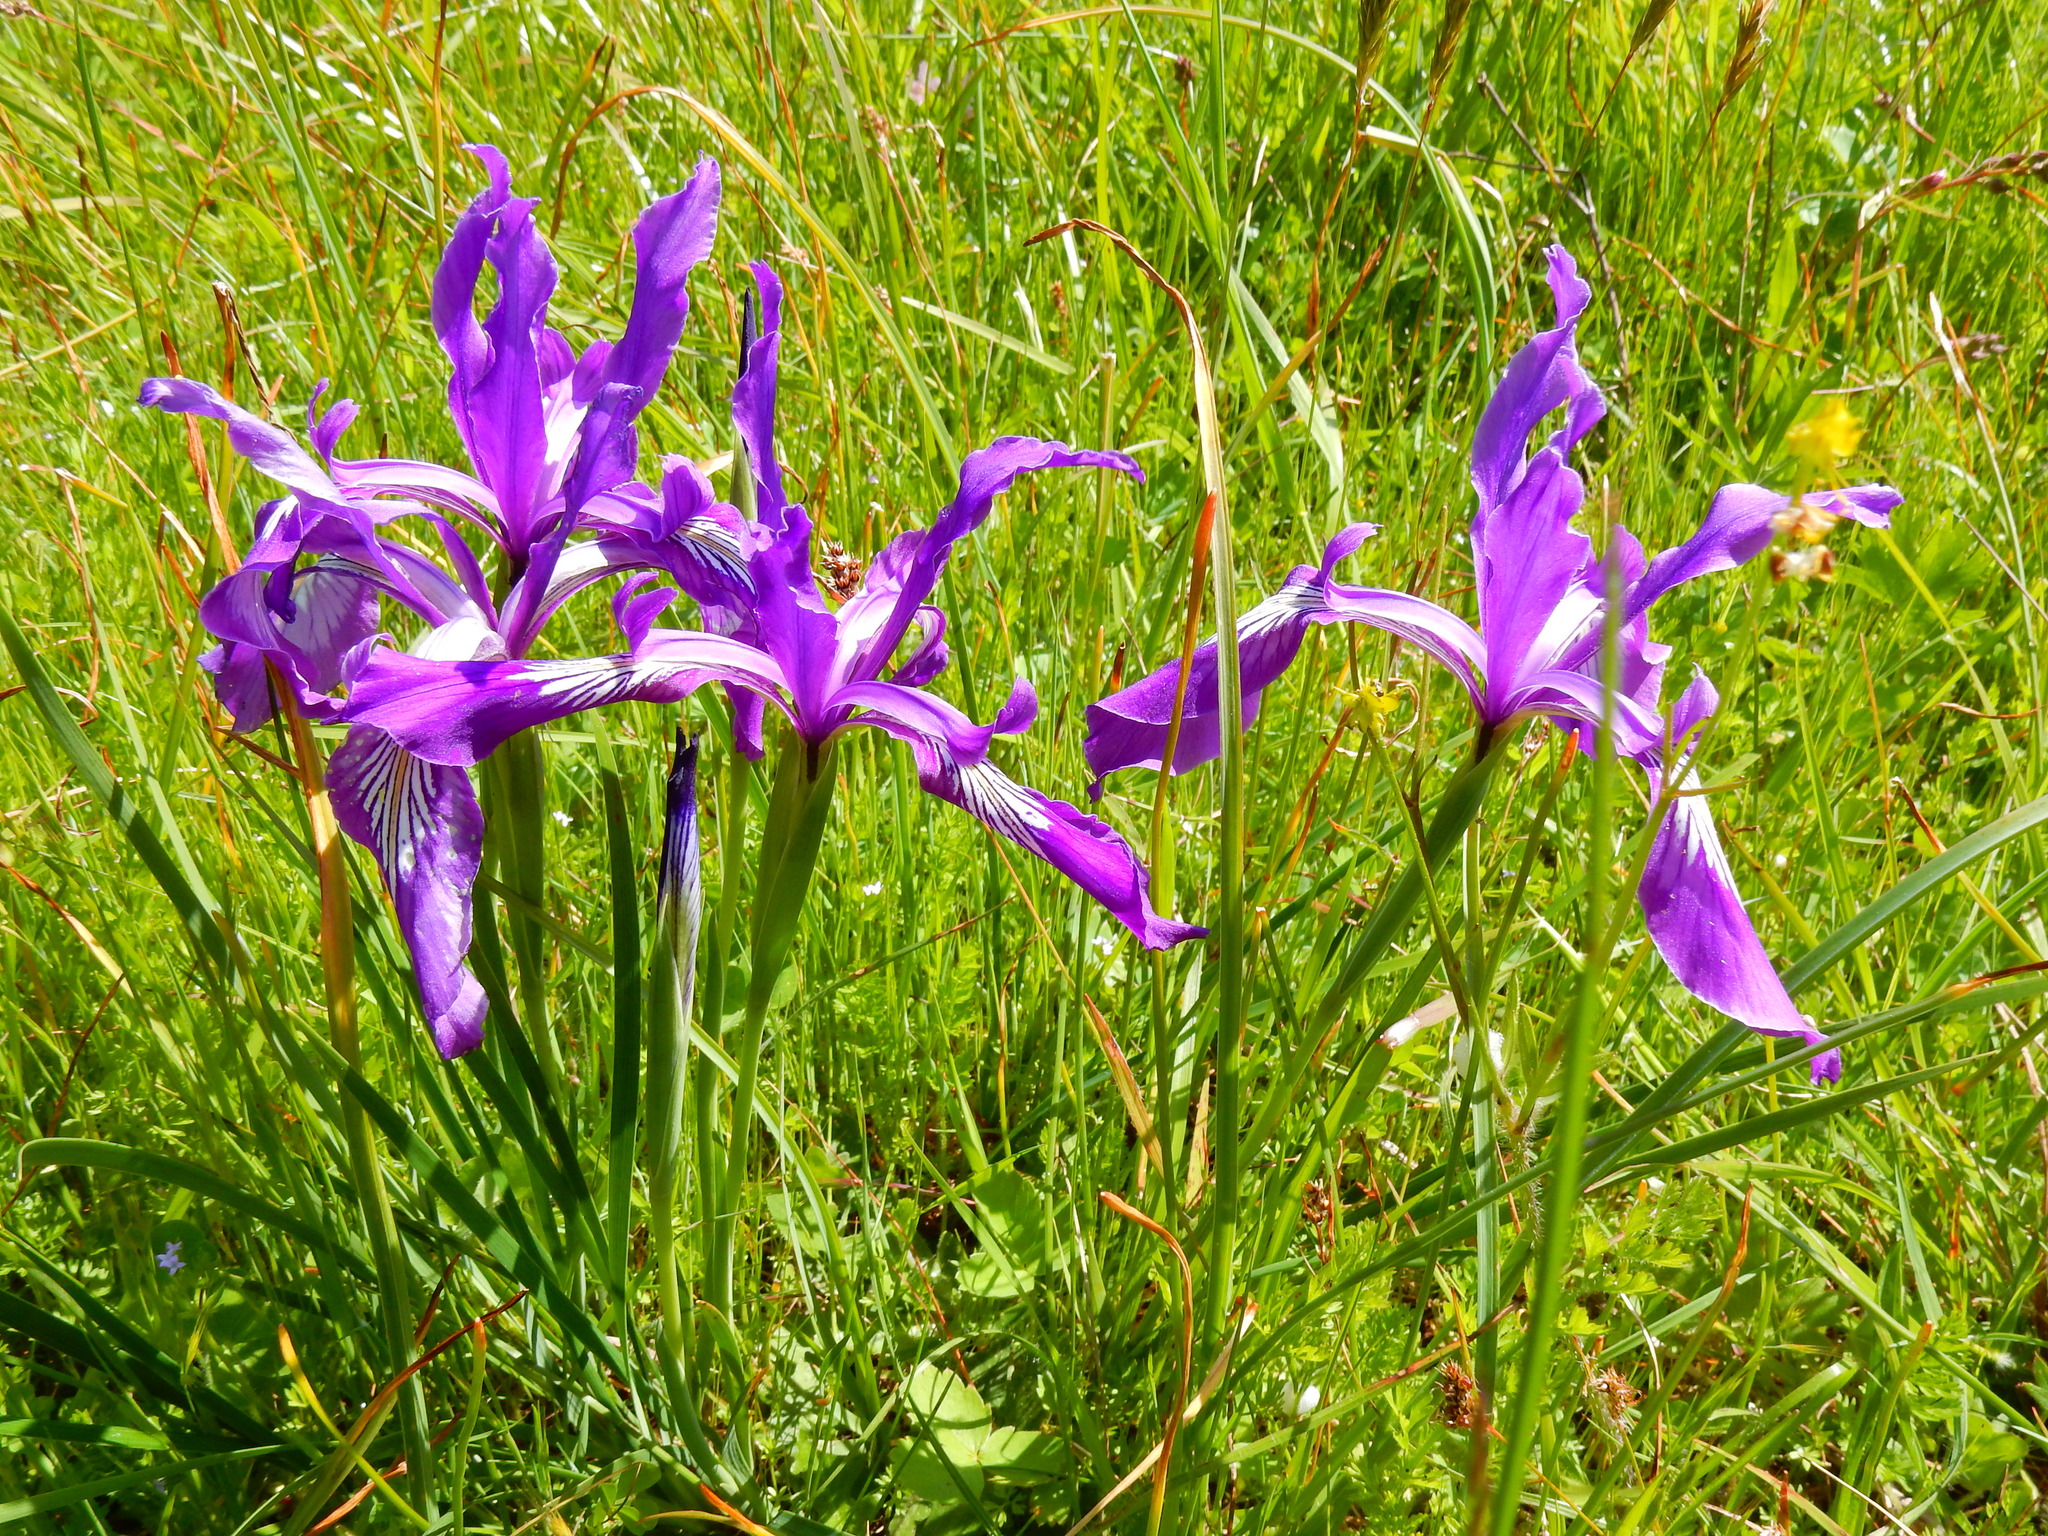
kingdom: Plantae
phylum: Tracheophyta
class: Liliopsida
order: Asparagales
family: Iridaceae
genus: Iris
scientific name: Iris tenax
